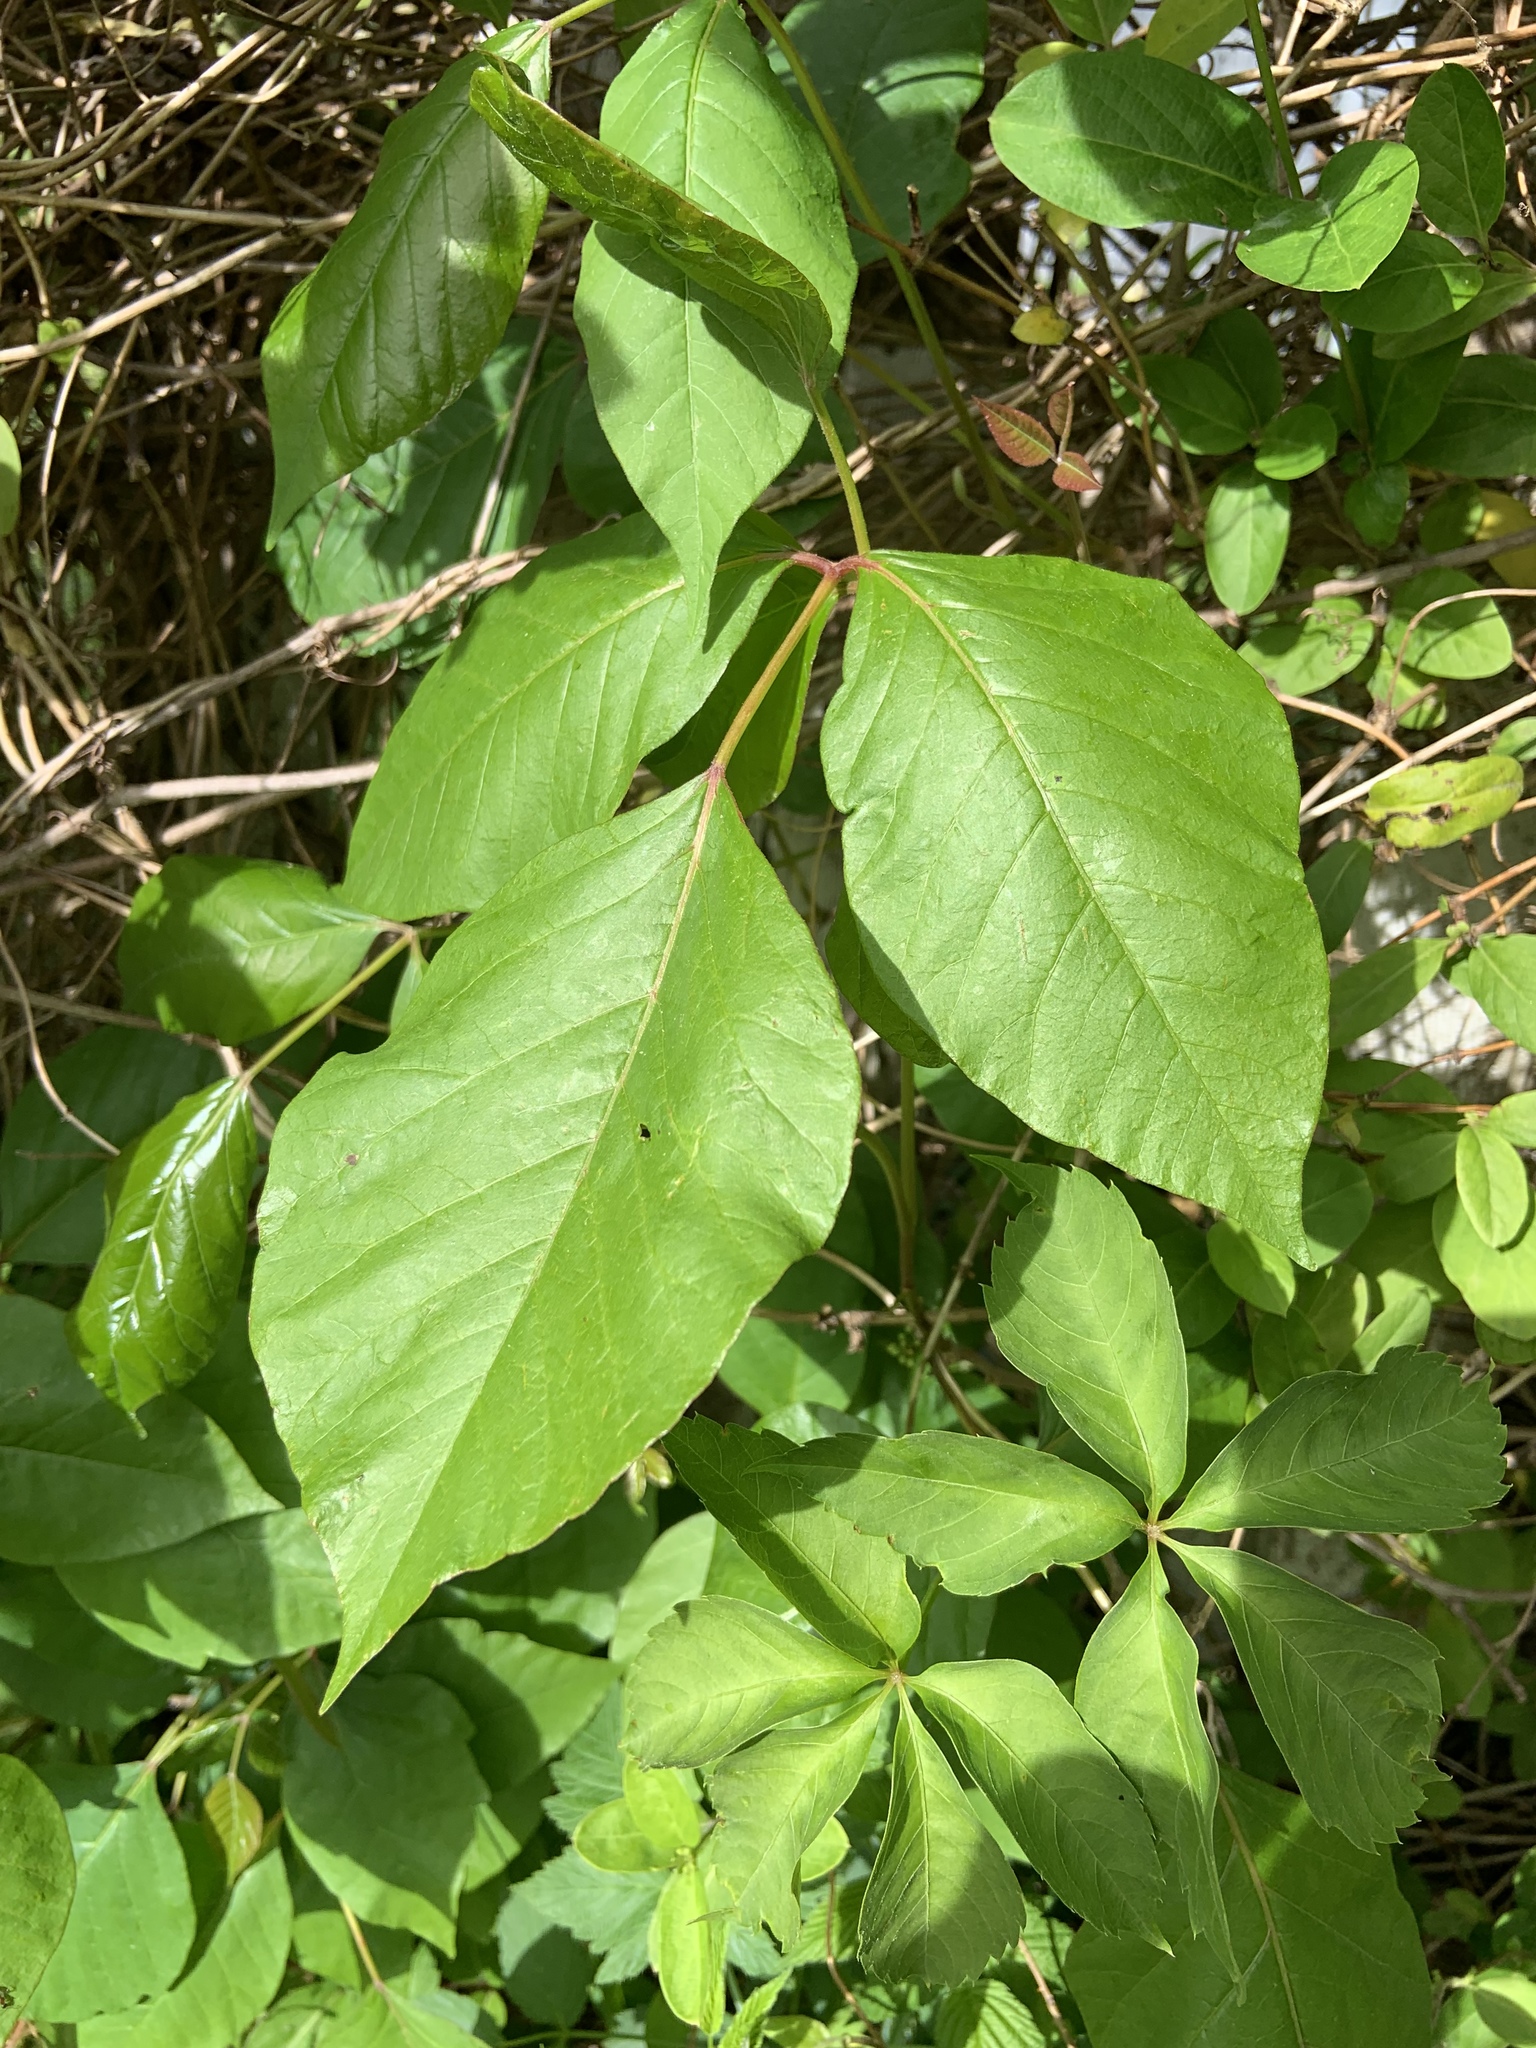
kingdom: Plantae
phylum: Tracheophyta
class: Magnoliopsida
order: Sapindales
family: Anacardiaceae
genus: Toxicodendron
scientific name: Toxicodendron radicans
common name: Poison ivy
